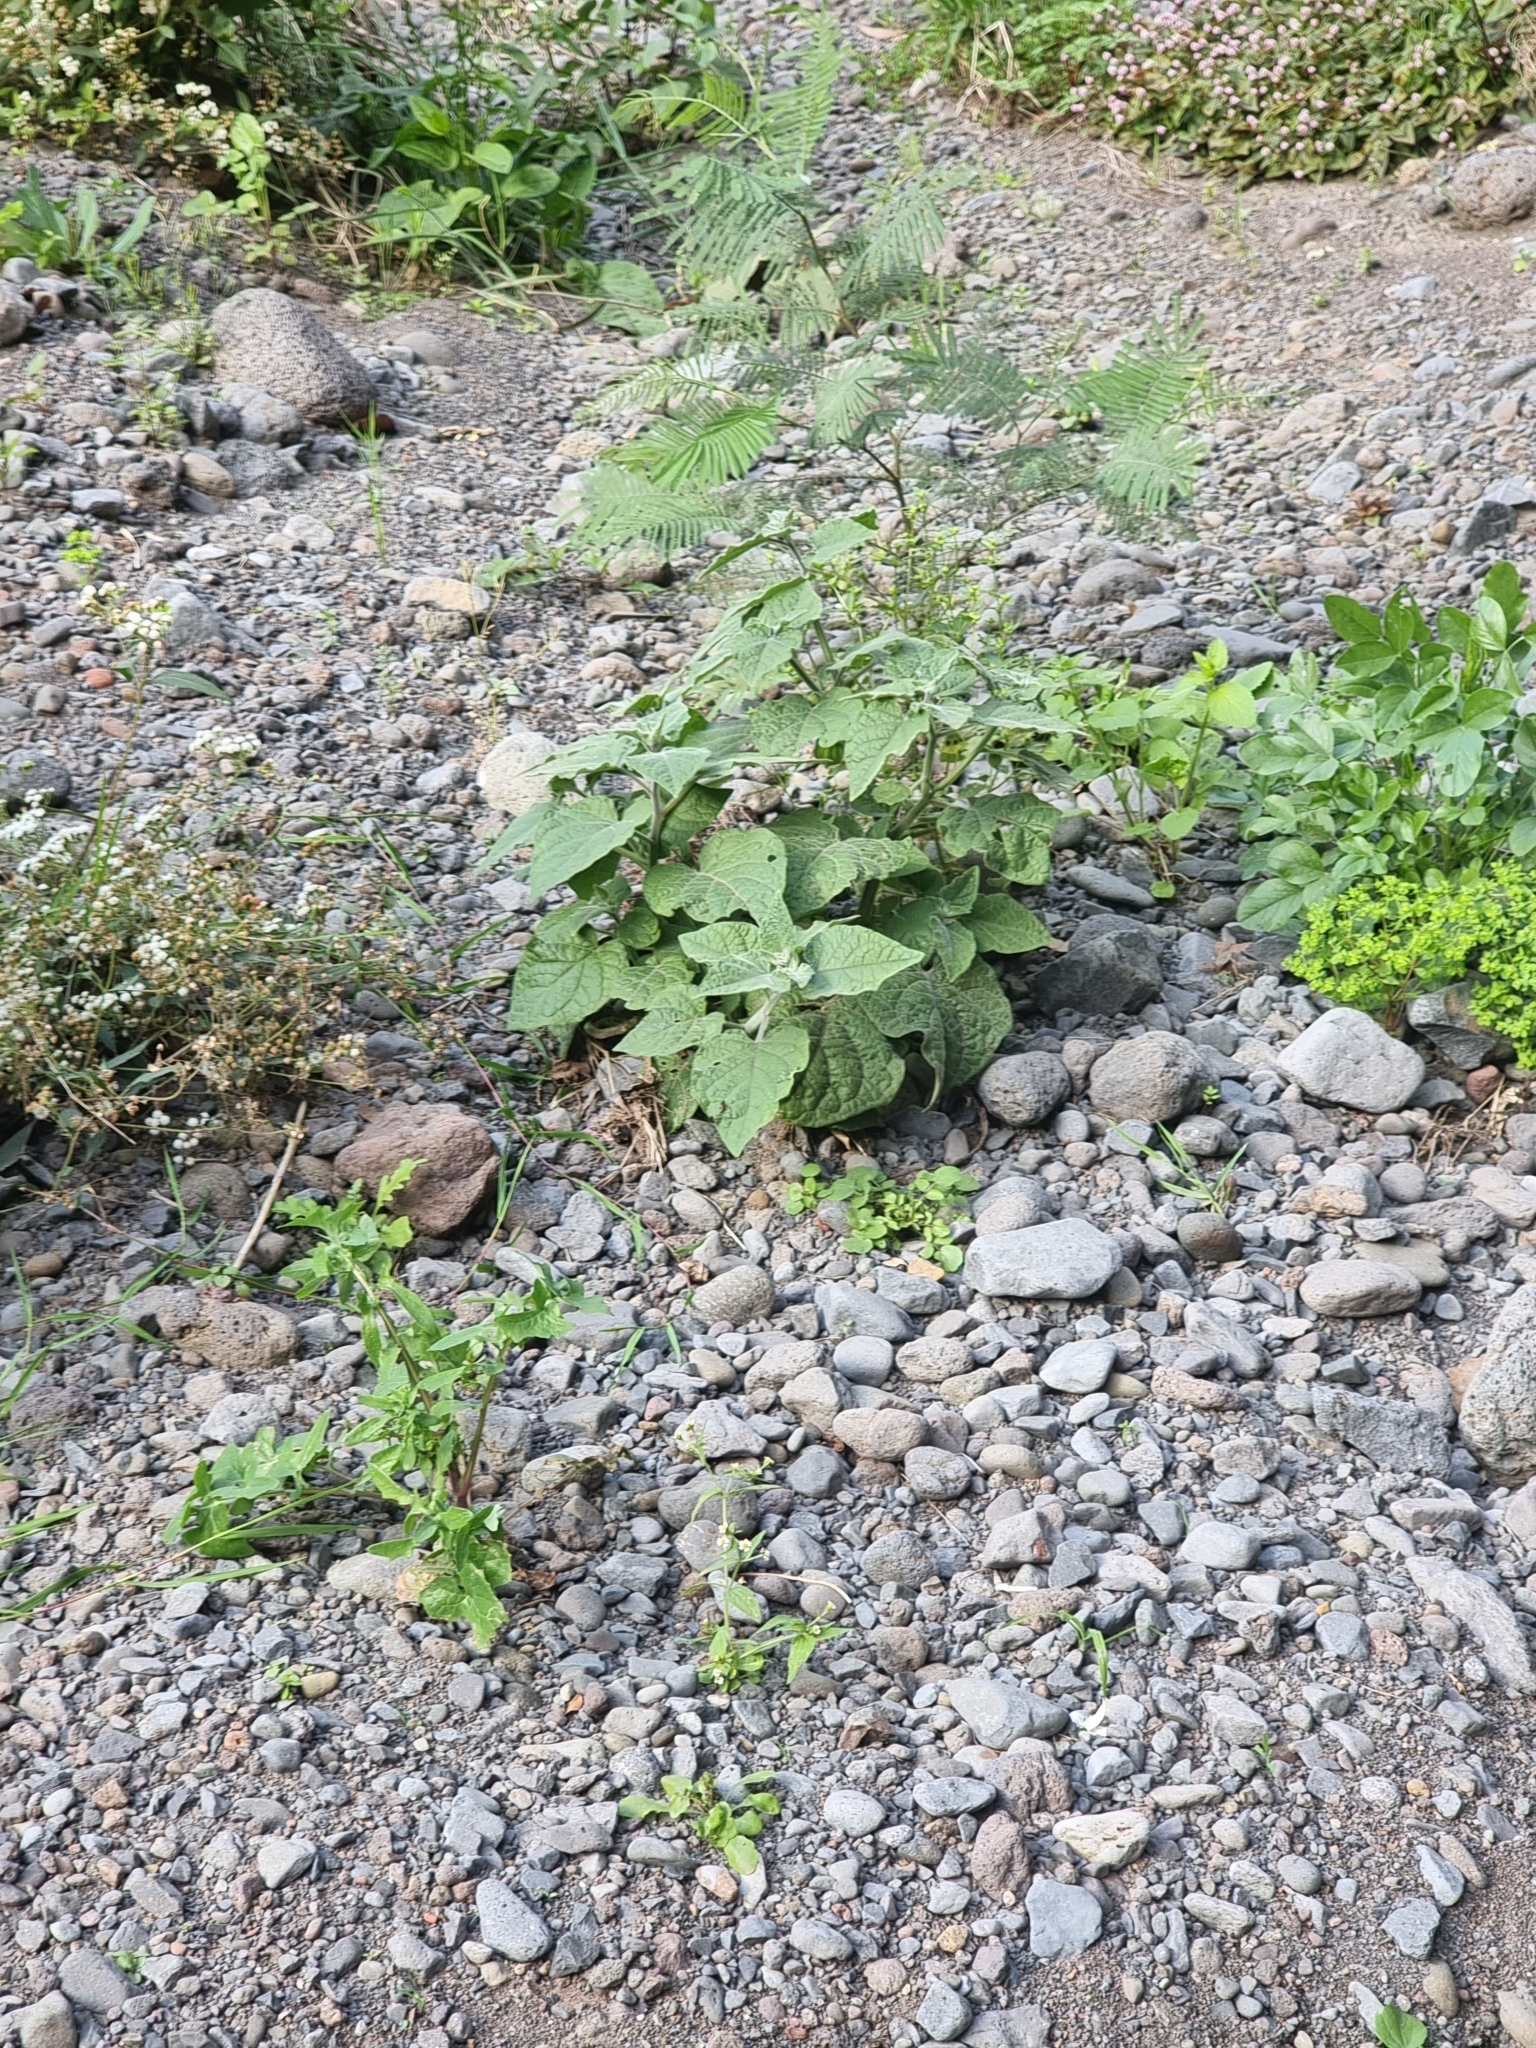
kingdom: Plantae
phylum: Tracheophyta
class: Magnoliopsida
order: Solanales
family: Solanaceae
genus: Physalis
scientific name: Physalis peruviana
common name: Cape-gooseberry
